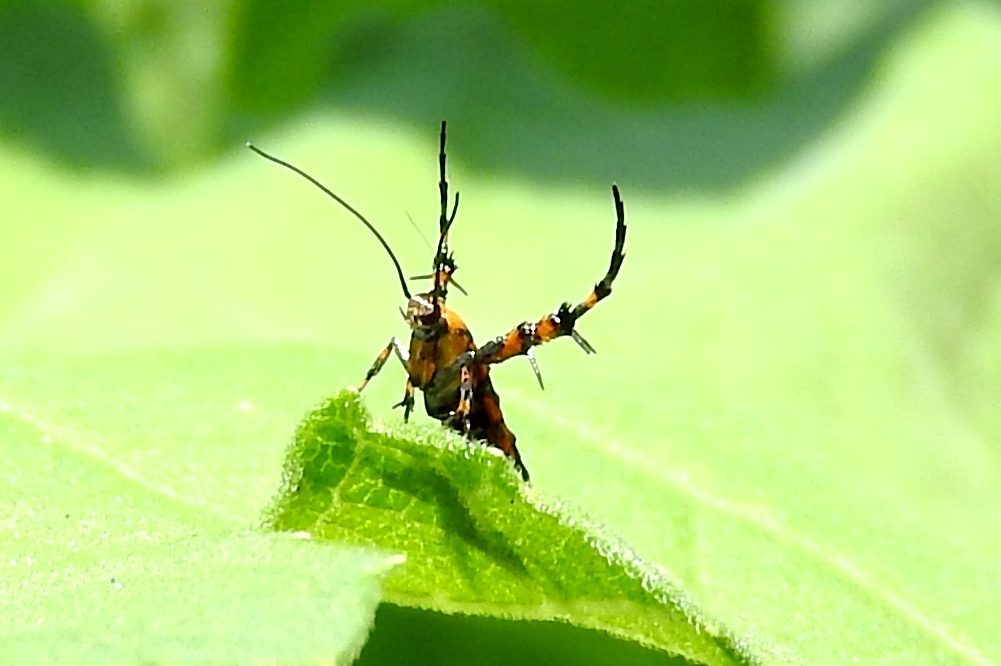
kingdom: Animalia
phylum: Arthropoda
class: Insecta
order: Lepidoptera
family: Heliodinidae
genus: Heliodines
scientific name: Heliodines
